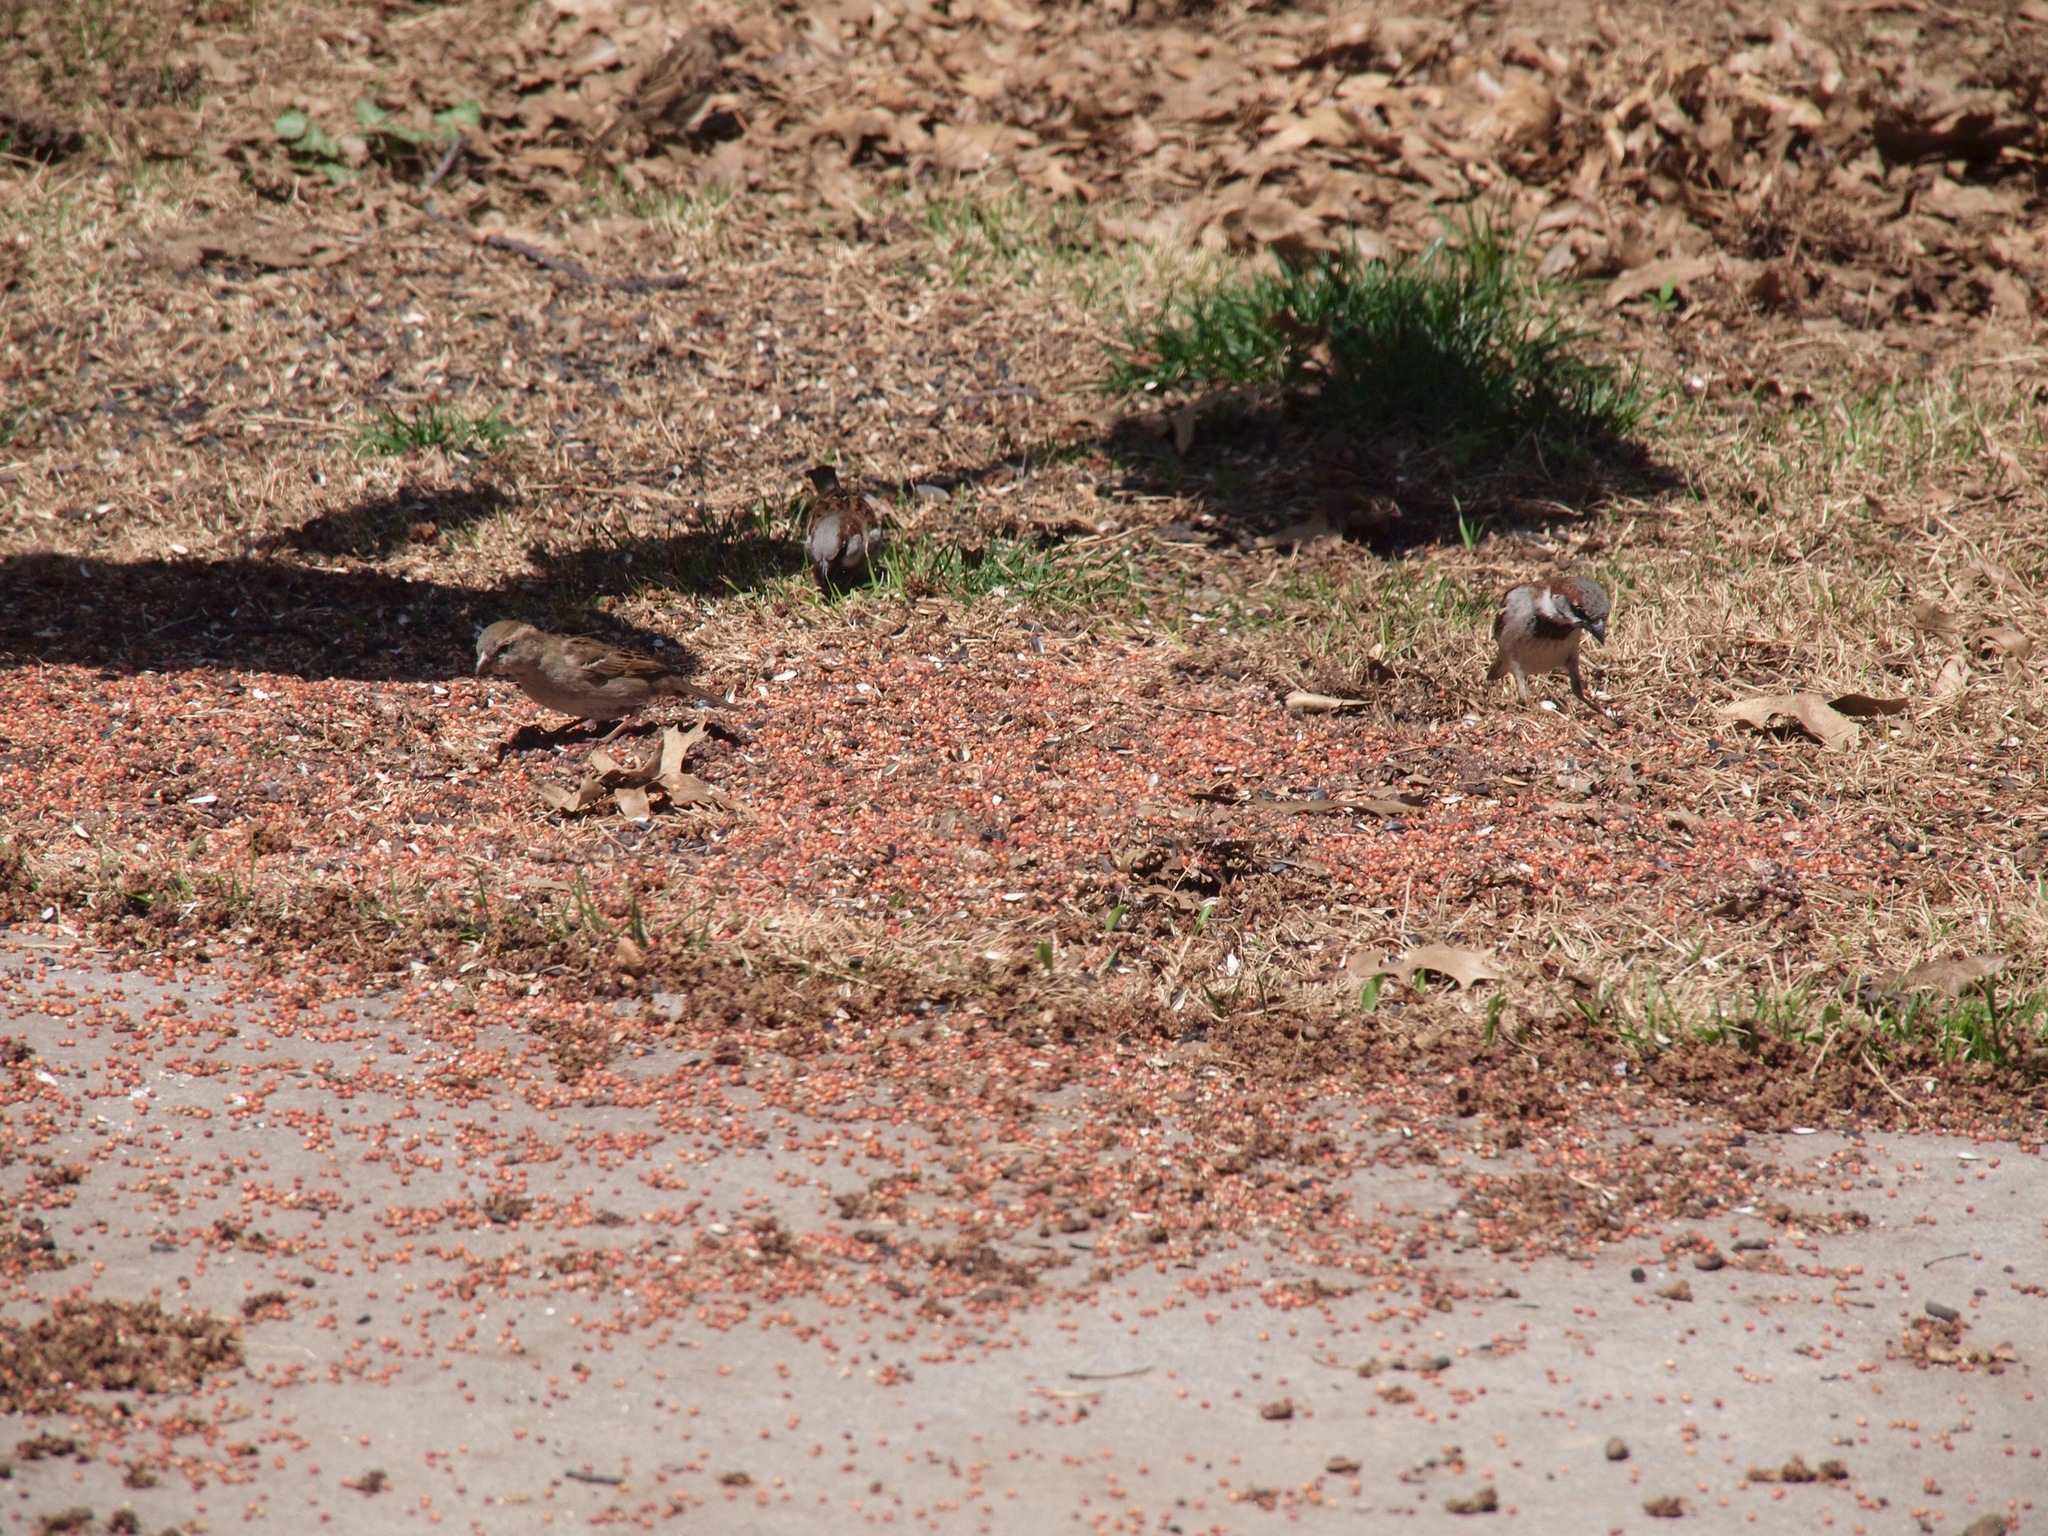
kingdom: Animalia
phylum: Chordata
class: Aves
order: Passeriformes
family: Passeridae
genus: Passer
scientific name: Passer domesticus
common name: House sparrow
